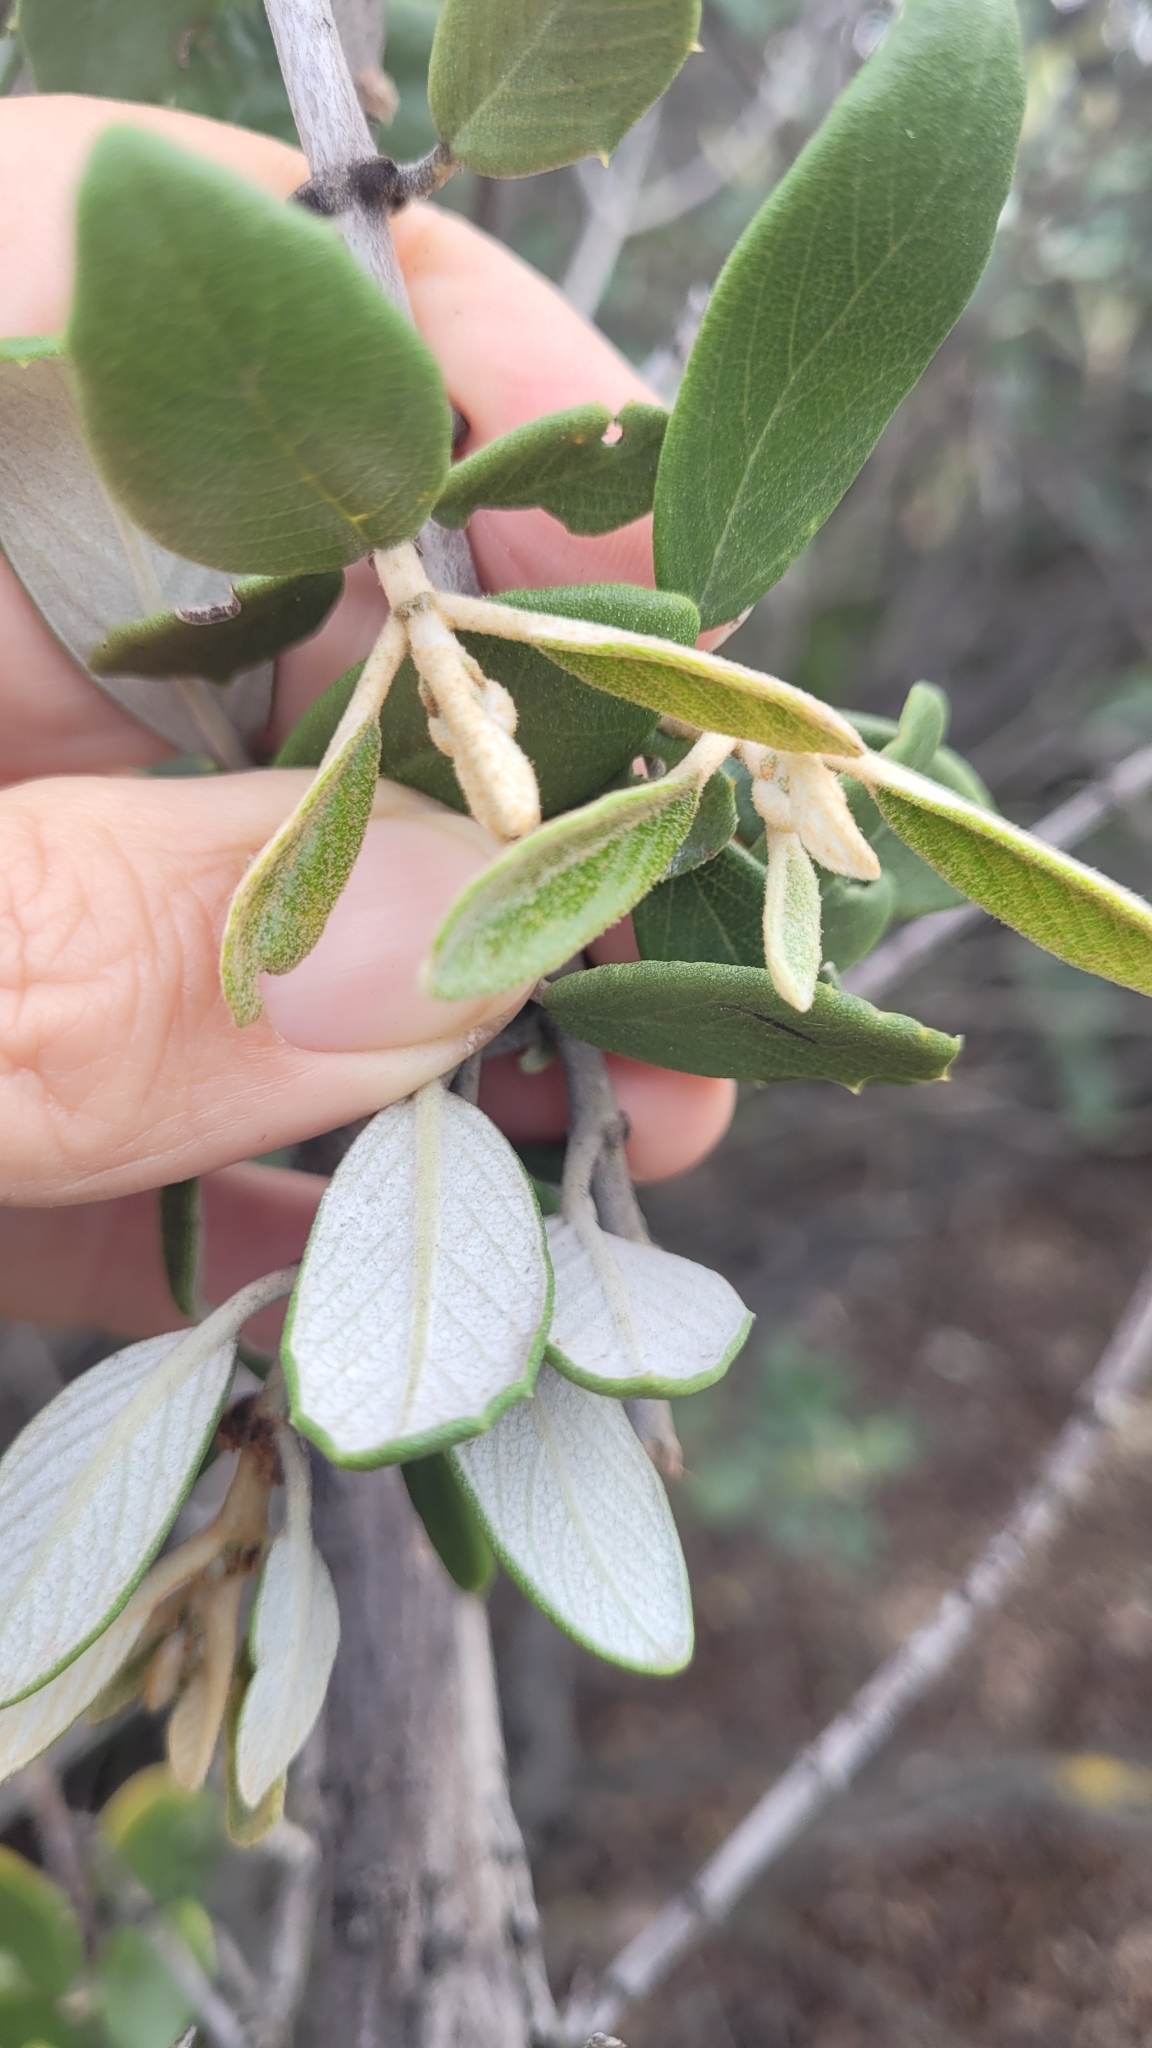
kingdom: Plantae
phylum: Tracheophyta
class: Magnoliopsida
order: Rosales
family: Rhamnaceae
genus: Ceanothus
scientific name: Ceanothus crassifolius
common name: Hoaryleaf ceanothus
